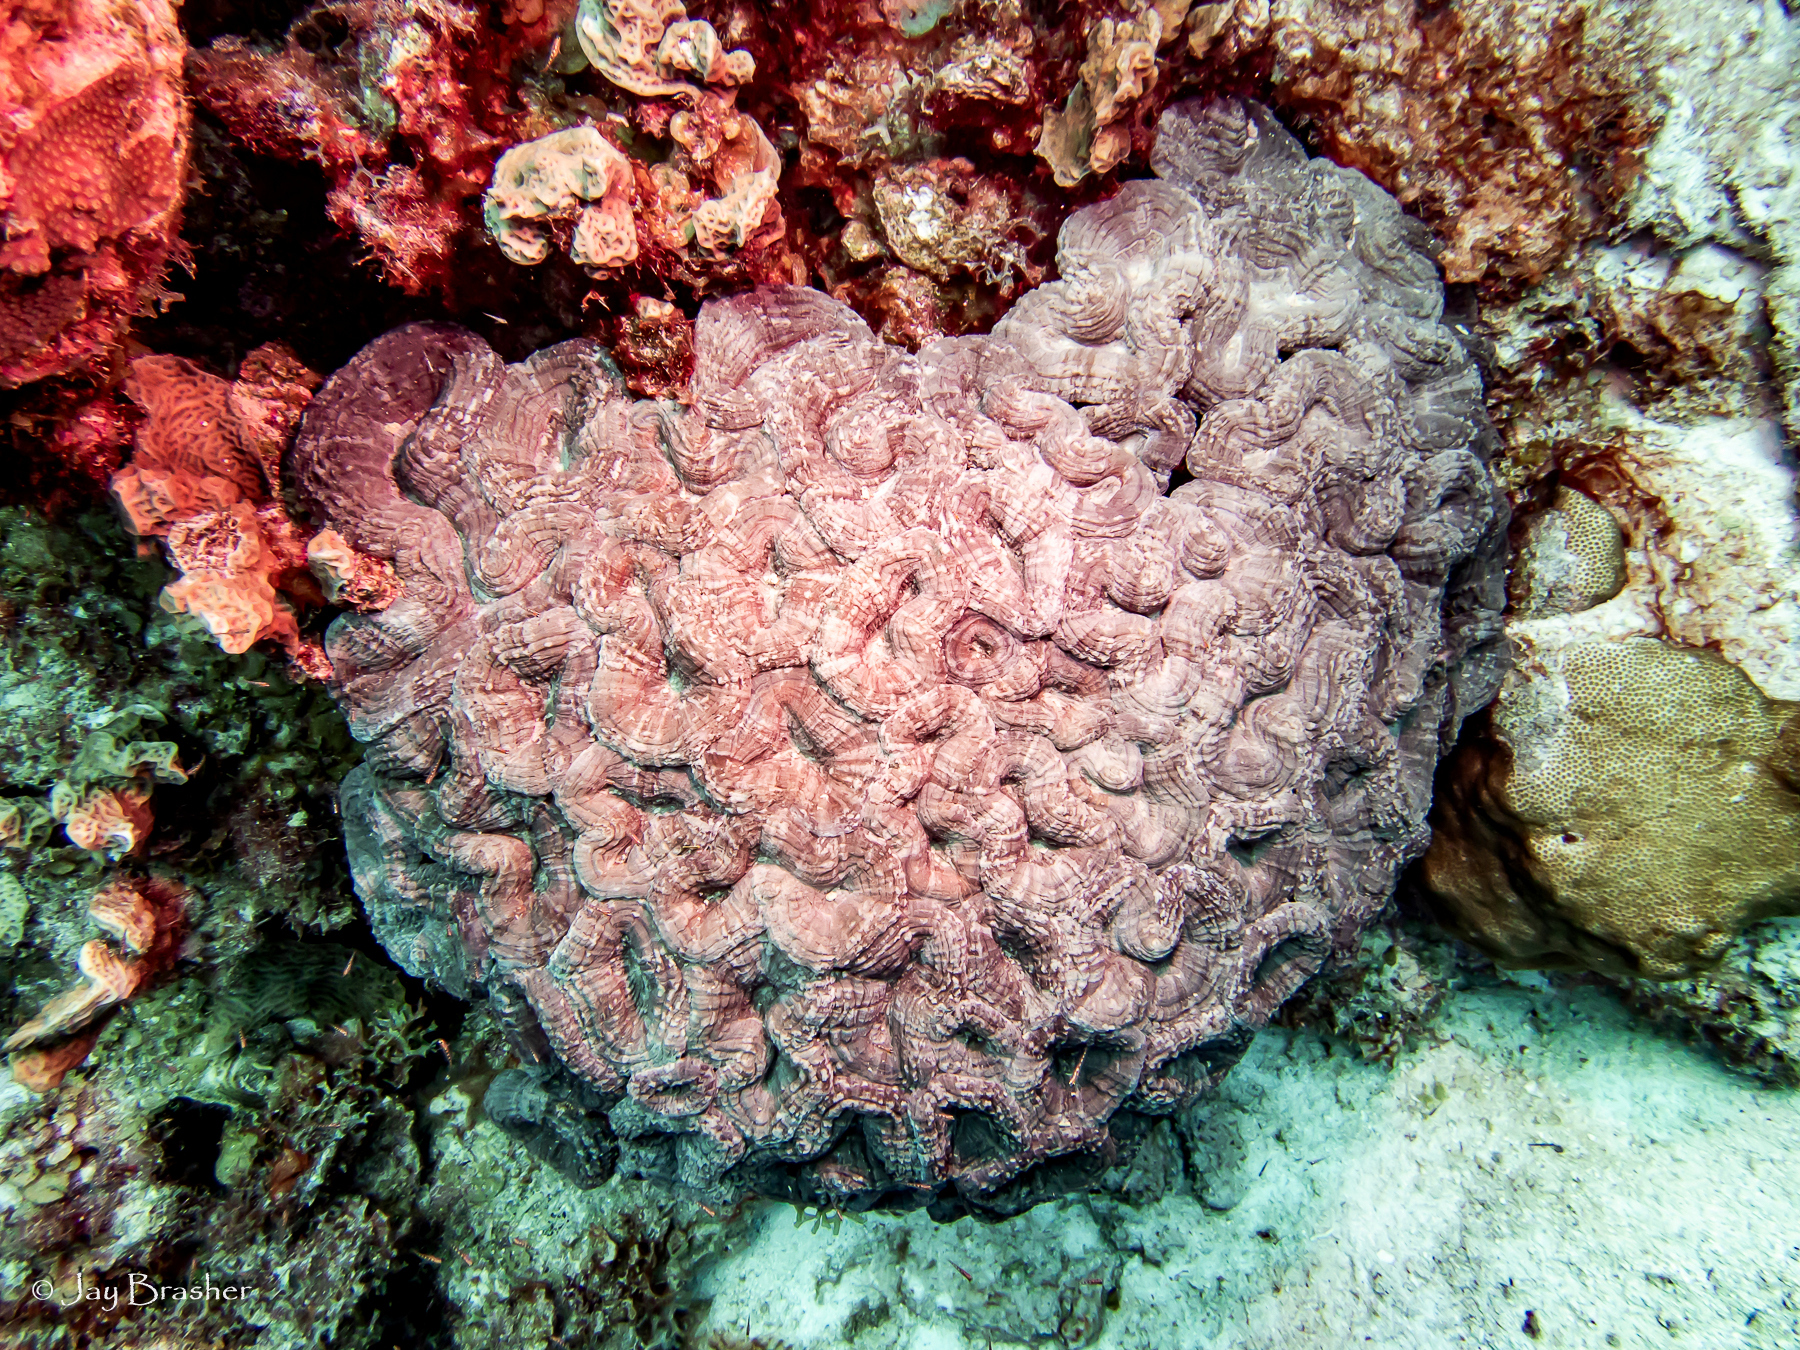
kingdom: Animalia
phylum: Cnidaria
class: Anthozoa
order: Scleractinia
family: Faviidae
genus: Mussa
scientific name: Mussa angulosa
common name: Spiny flower coral
